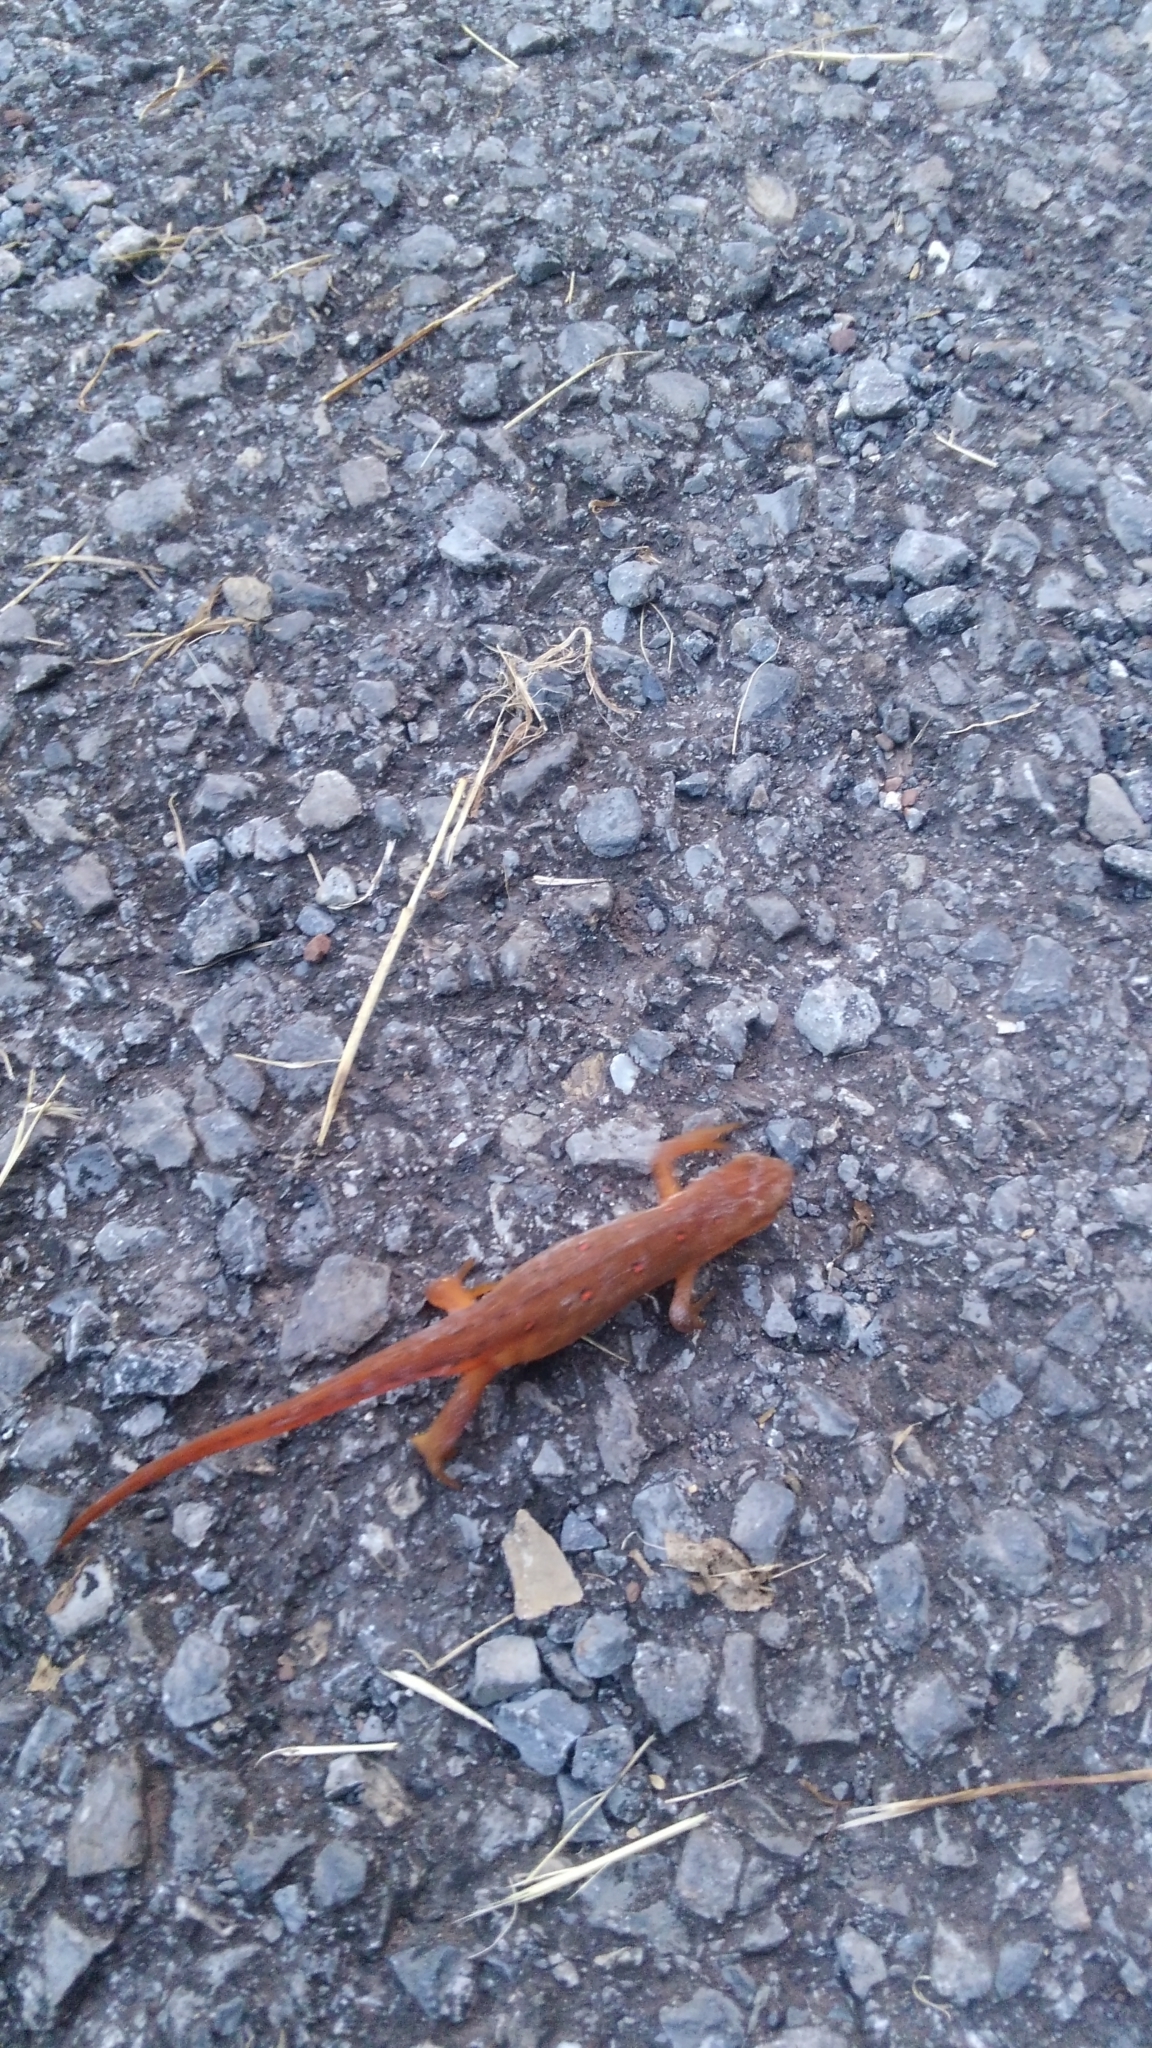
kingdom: Animalia
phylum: Chordata
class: Amphibia
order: Caudata
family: Salamandridae
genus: Notophthalmus
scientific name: Notophthalmus viridescens
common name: Eastern newt
